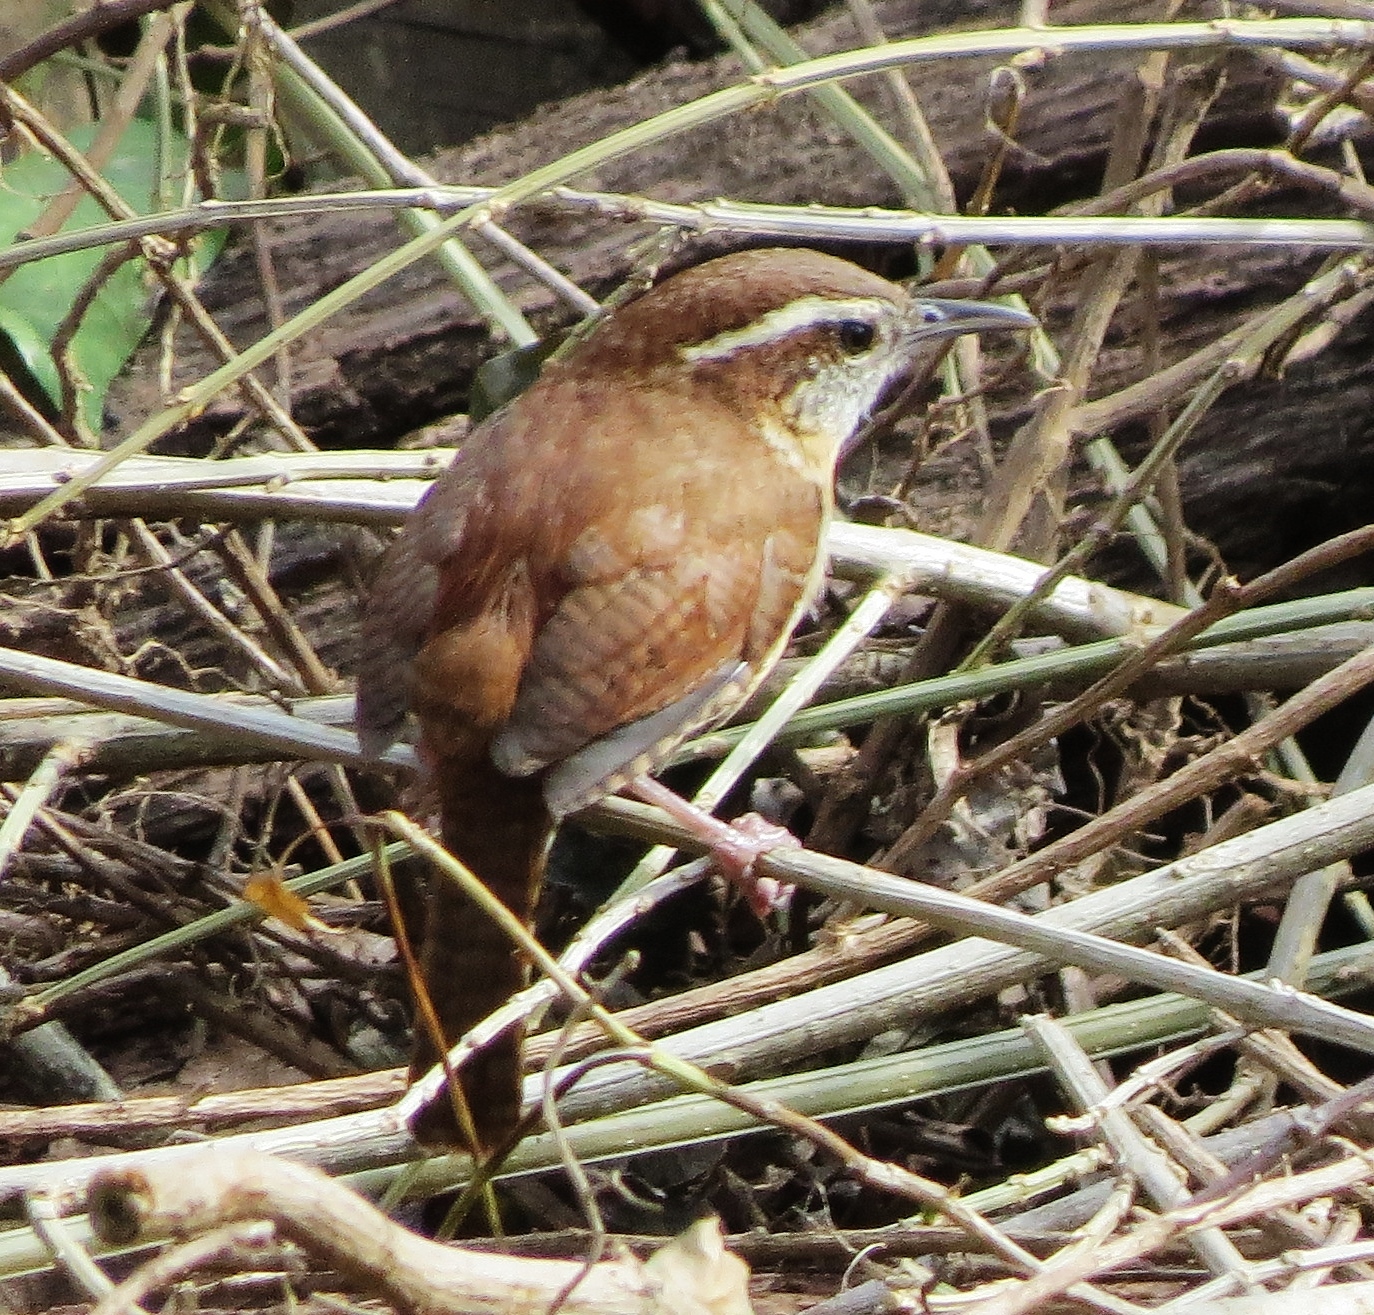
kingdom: Animalia
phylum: Chordata
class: Aves
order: Passeriformes
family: Troglodytidae
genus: Thryothorus
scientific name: Thryothorus ludovicianus
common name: Carolina wren
